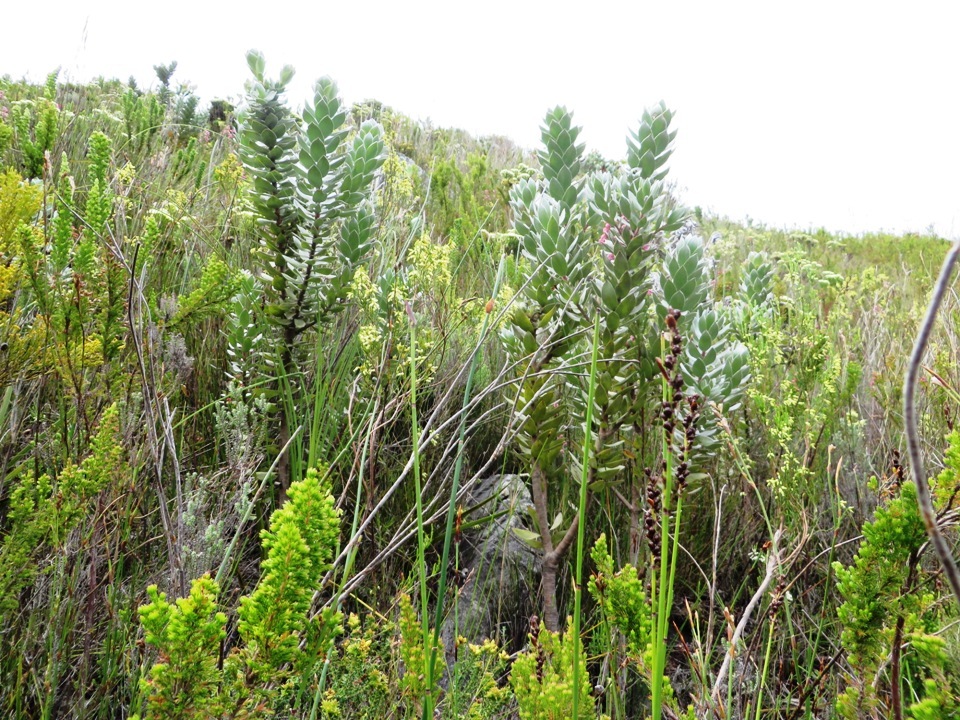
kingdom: Plantae
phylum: Tracheophyta
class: Magnoliopsida
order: Proteales
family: Proteaceae
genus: Mimetes
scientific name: Mimetes argenteus
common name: Silver pagoda
